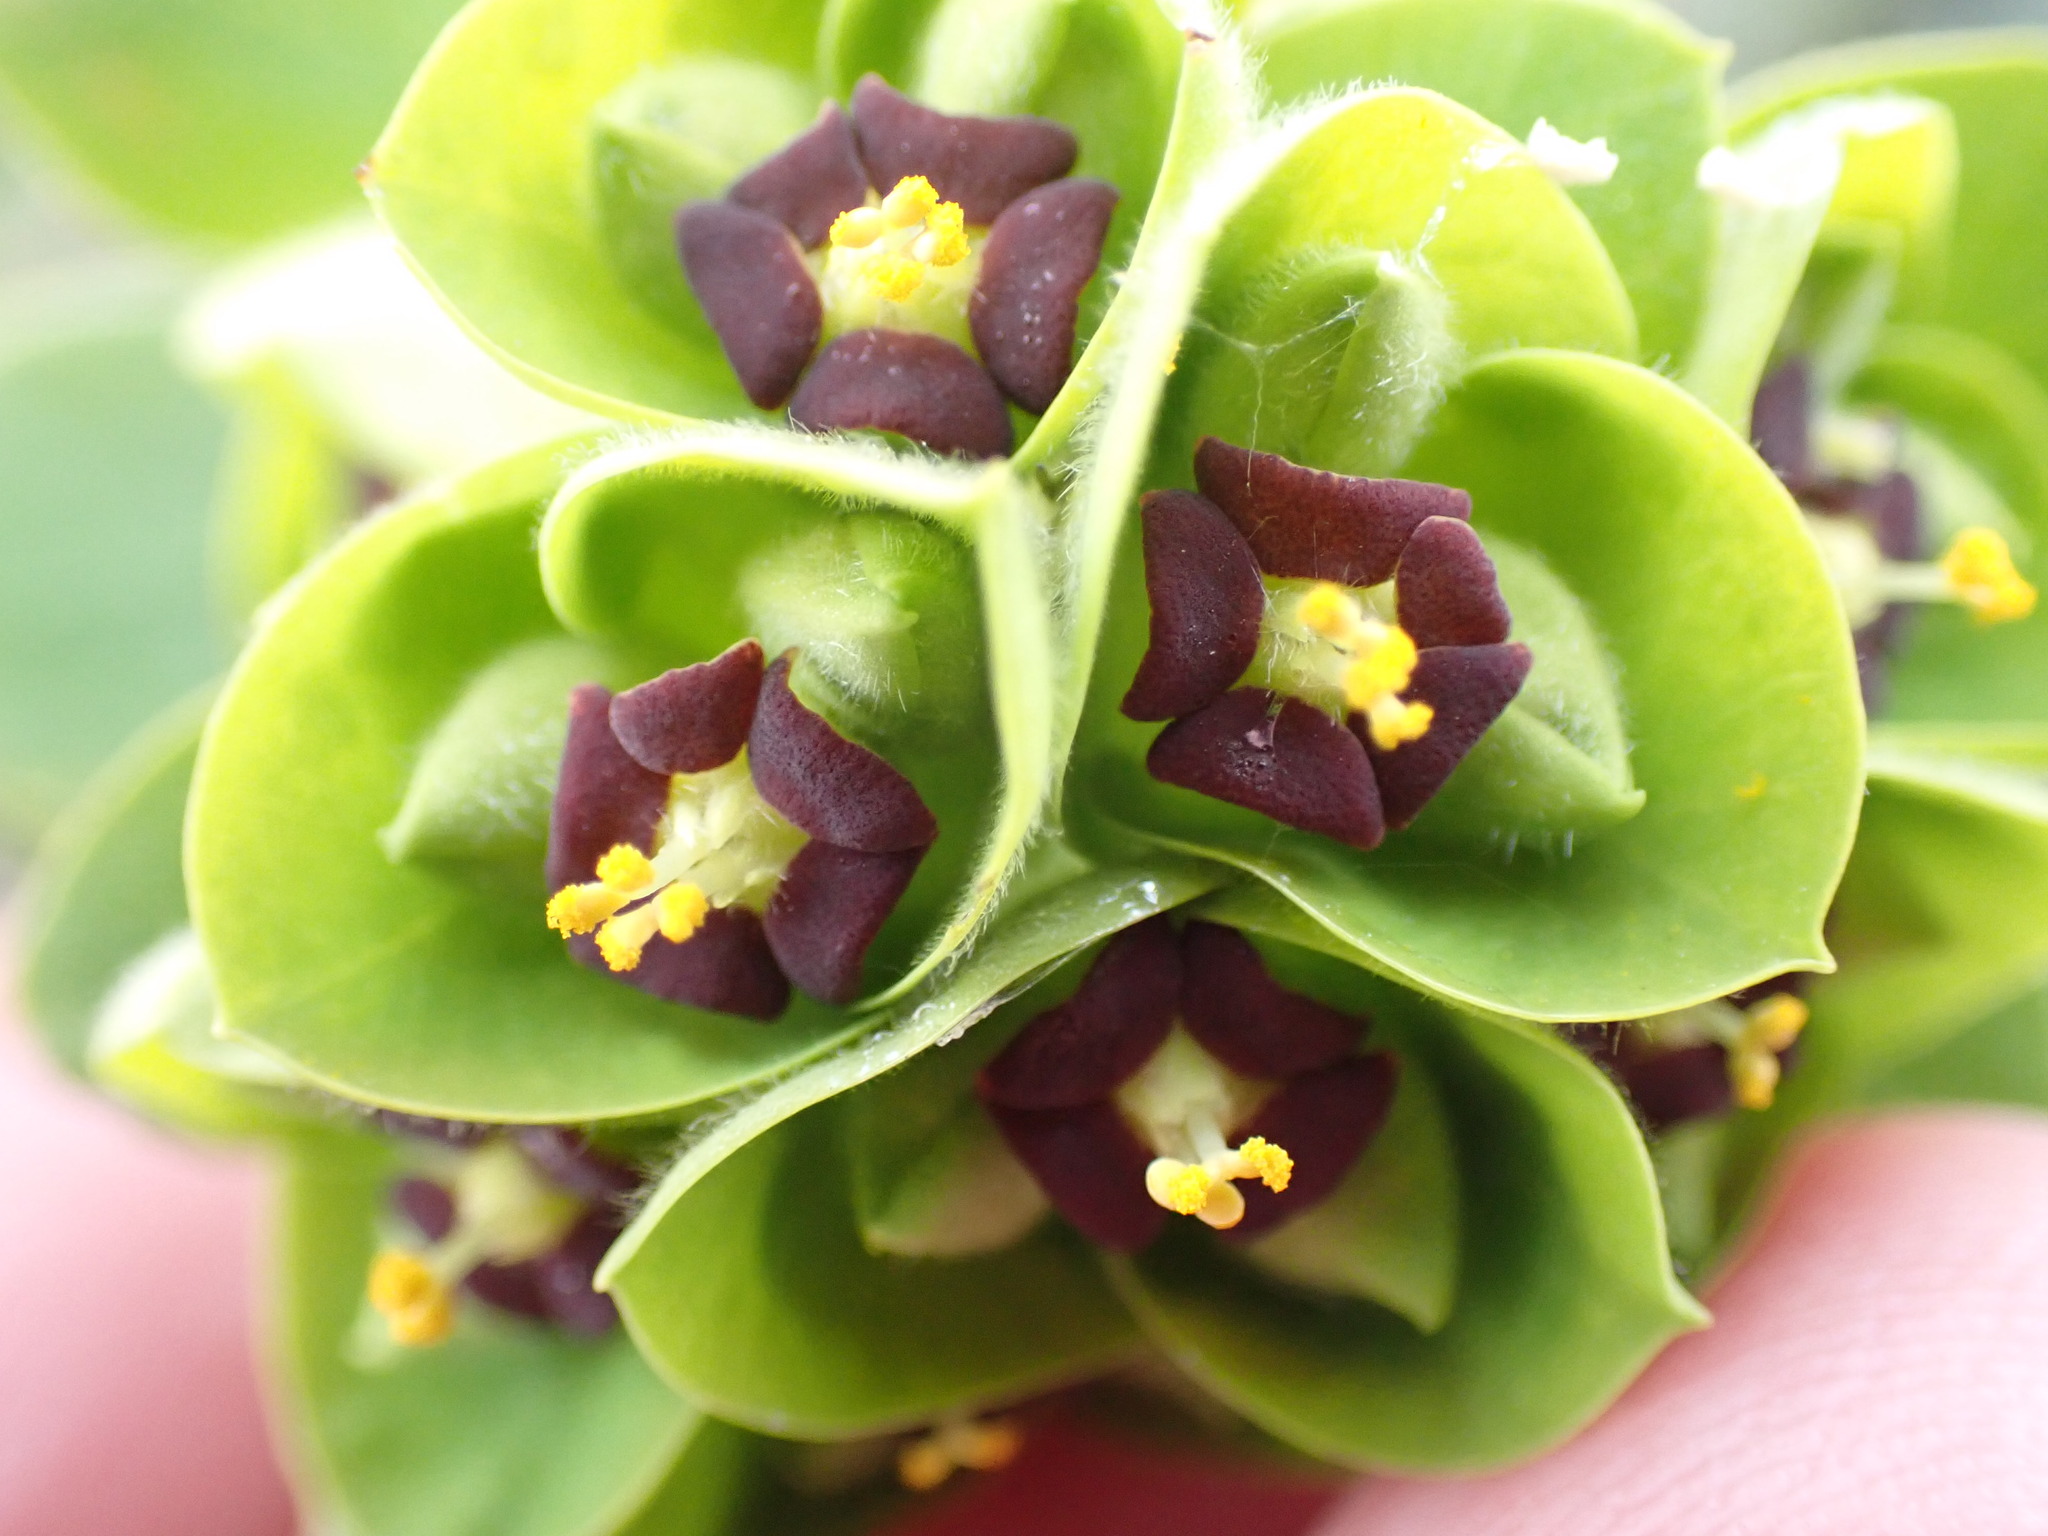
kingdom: Plantae
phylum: Tracheophyta
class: Magnoliopsida
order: Malpighiales
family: Euphorbiaceae
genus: Euphorbia
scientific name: Euphorbia characias
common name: Mediterranean spurge
